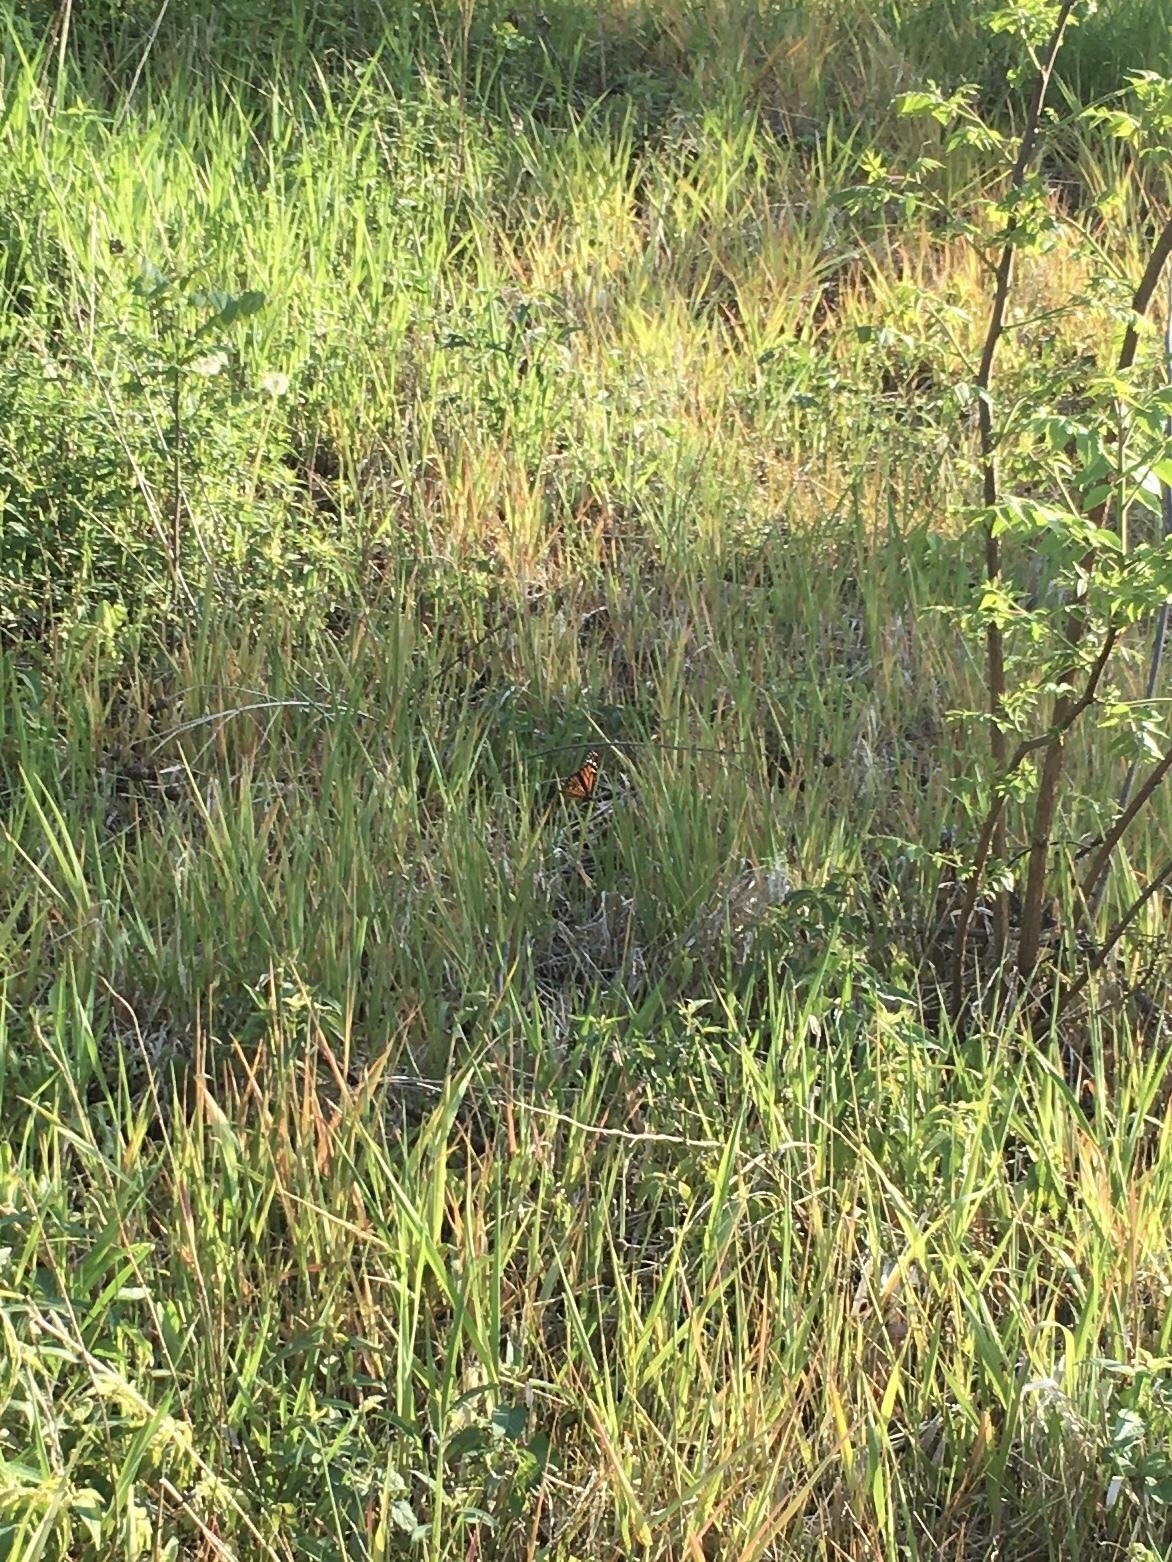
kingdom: Animalia
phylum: Arthropoda
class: Insecta
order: Lepidoptera
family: Nymphalidae
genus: Danaus
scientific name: Danaus plexippus
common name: Monarch
